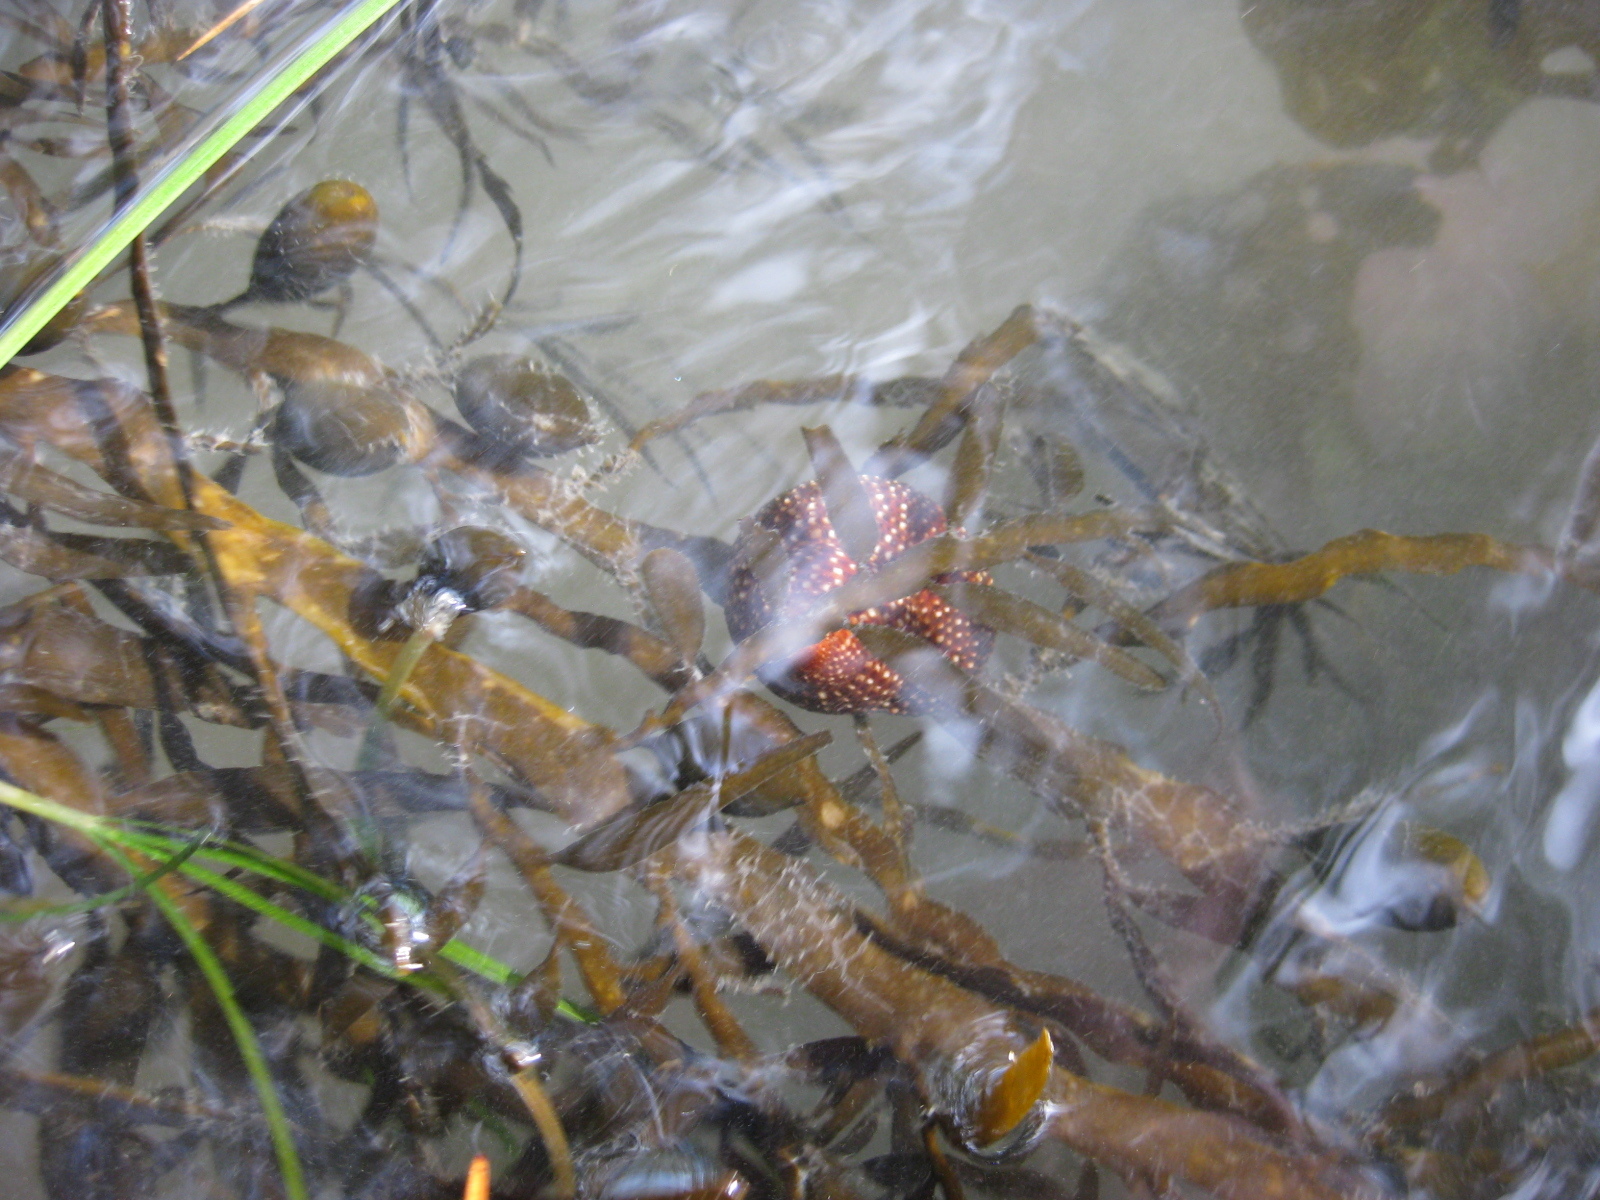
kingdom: Animalia
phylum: Mollusca
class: Gastropoda
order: Trochida
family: Calliostomatidae
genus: Maurea
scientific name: Maurea punctulata
